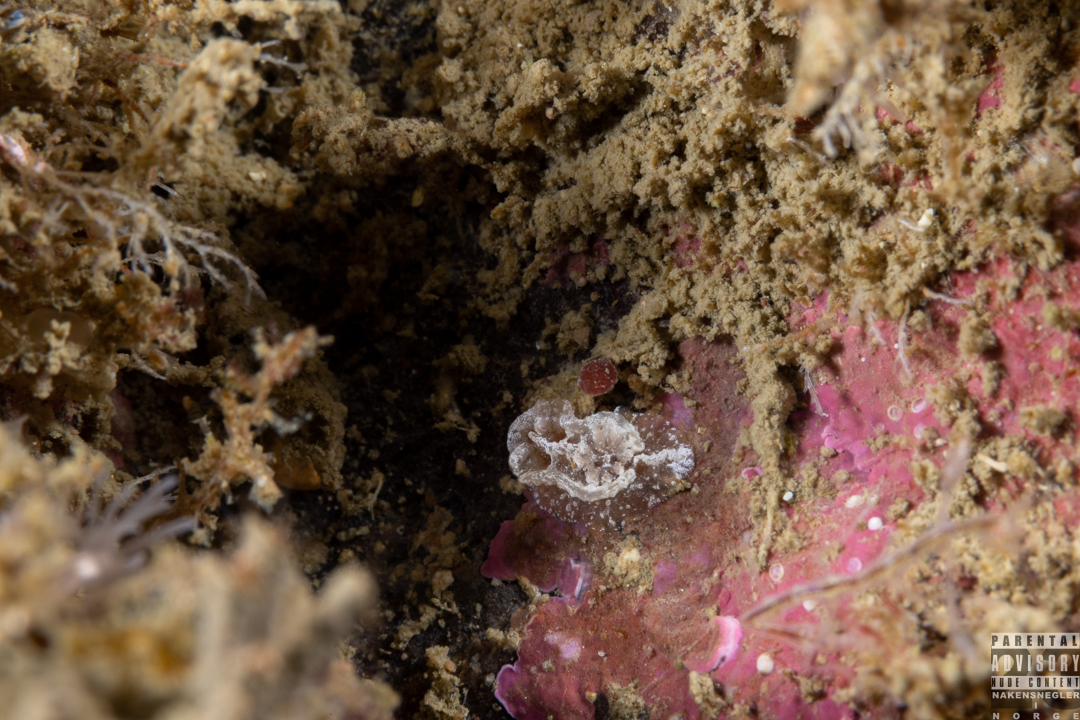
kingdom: Animalia
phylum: Mollusca
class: Gastropoda
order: Nudibranchia
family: Goniodorididae
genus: Pelagella
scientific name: Pelagella castanea
